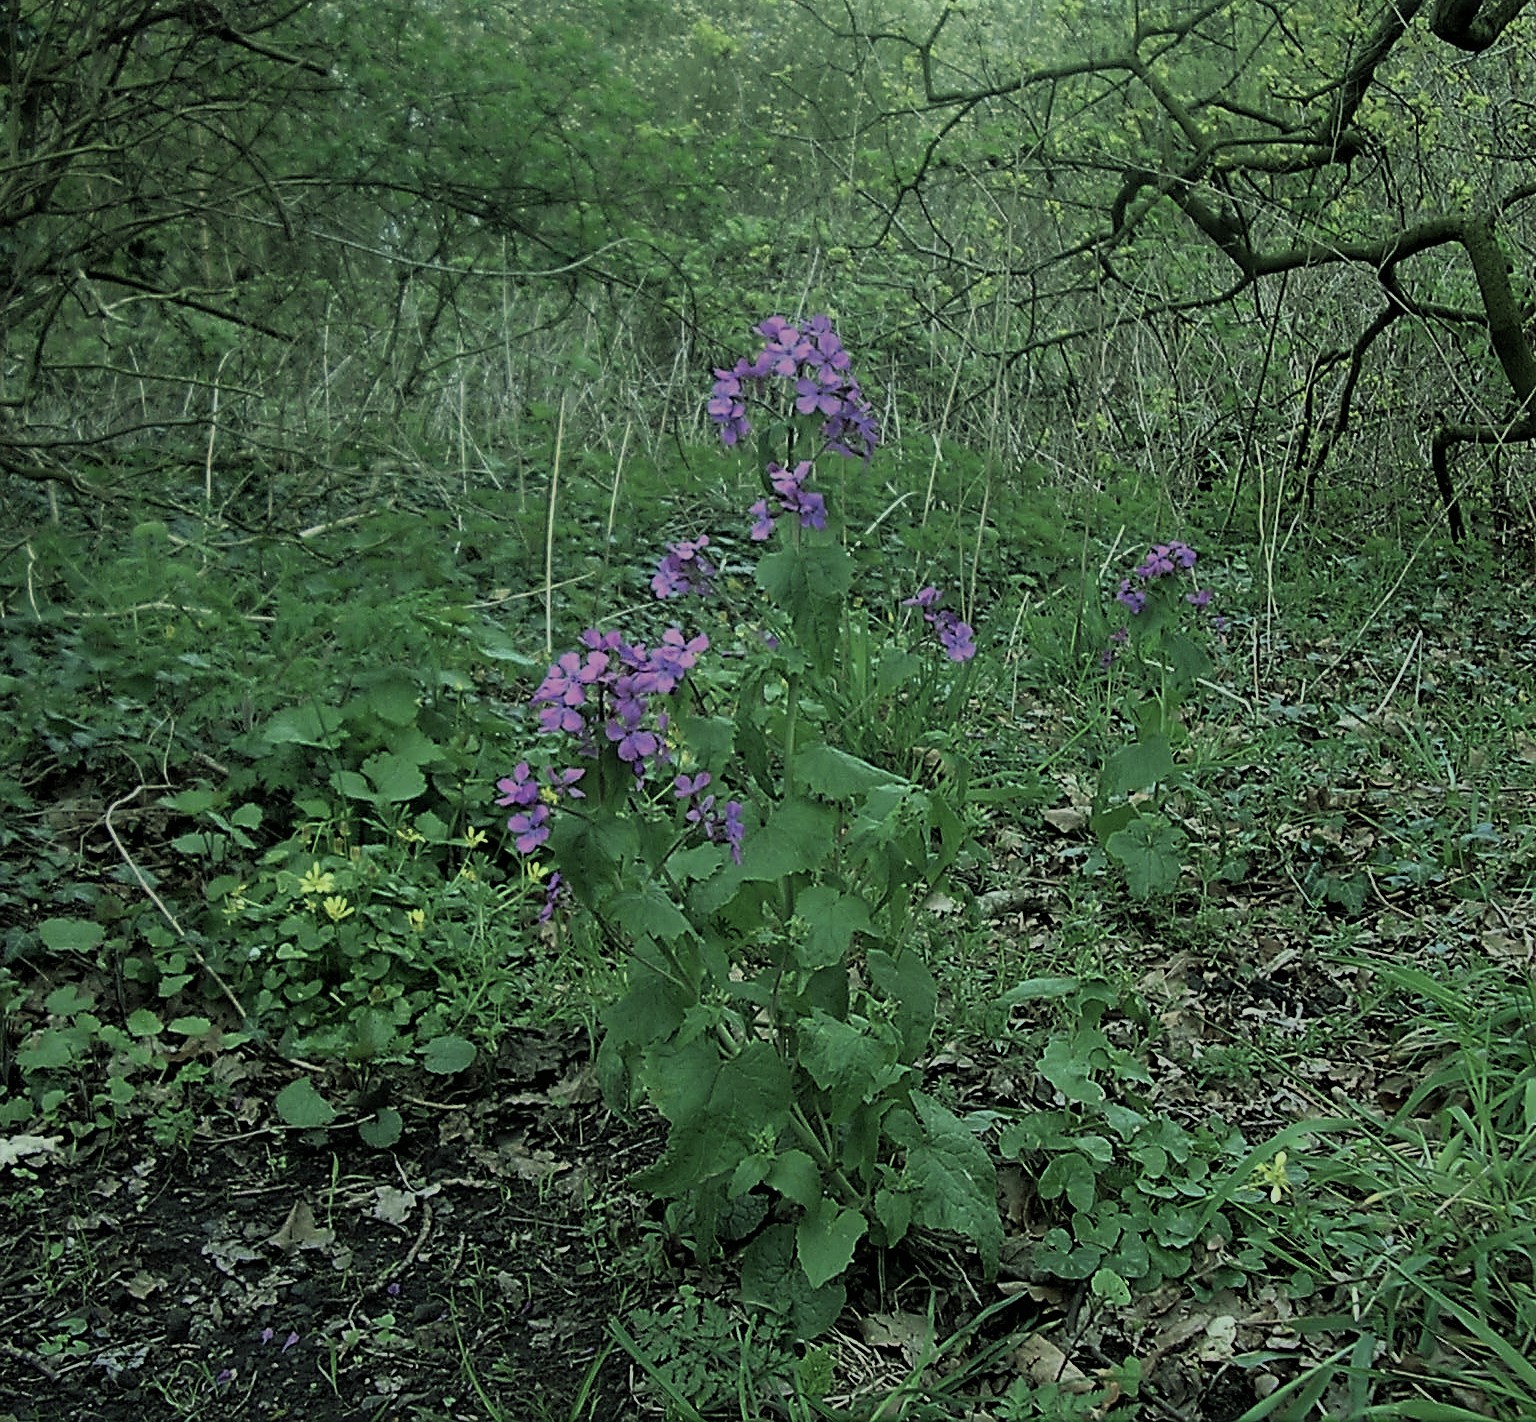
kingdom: Plantae
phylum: Tracheophyta
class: Magnoliopsida
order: Brassicales
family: Brassicaceae
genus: Lunaria
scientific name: Lunaria annua
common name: Honesty
